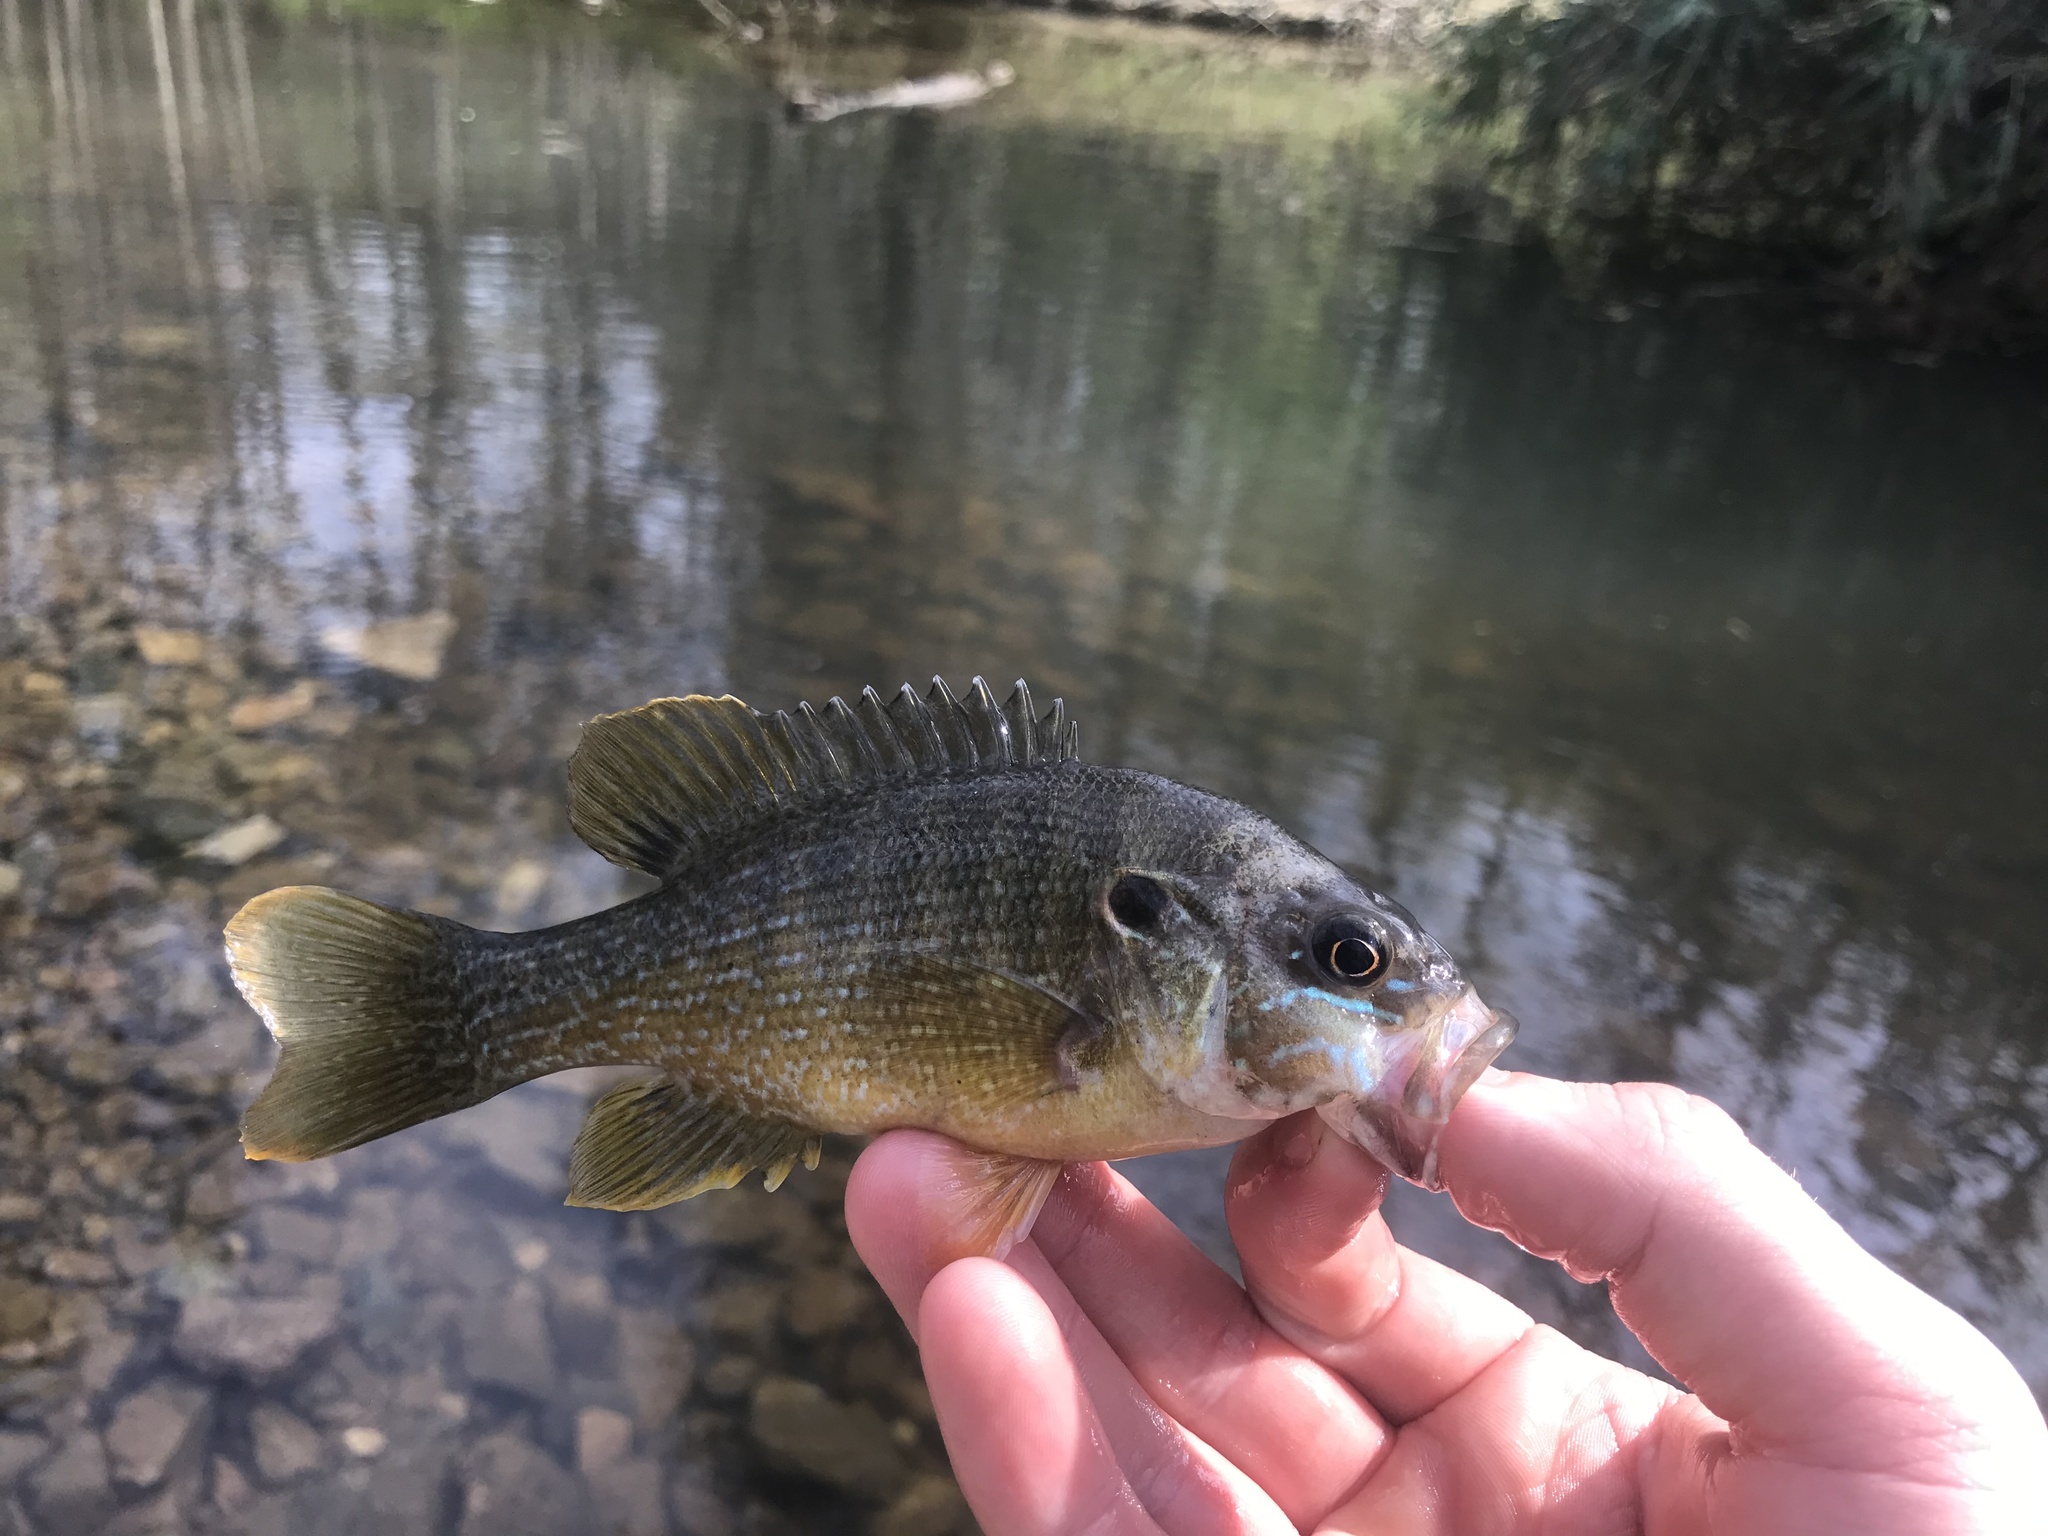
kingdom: Animalia
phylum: Chordata
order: Perciformes
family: Centrarchidae
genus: Lepomis
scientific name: Lepomis cyanellus
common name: Green sunfish
